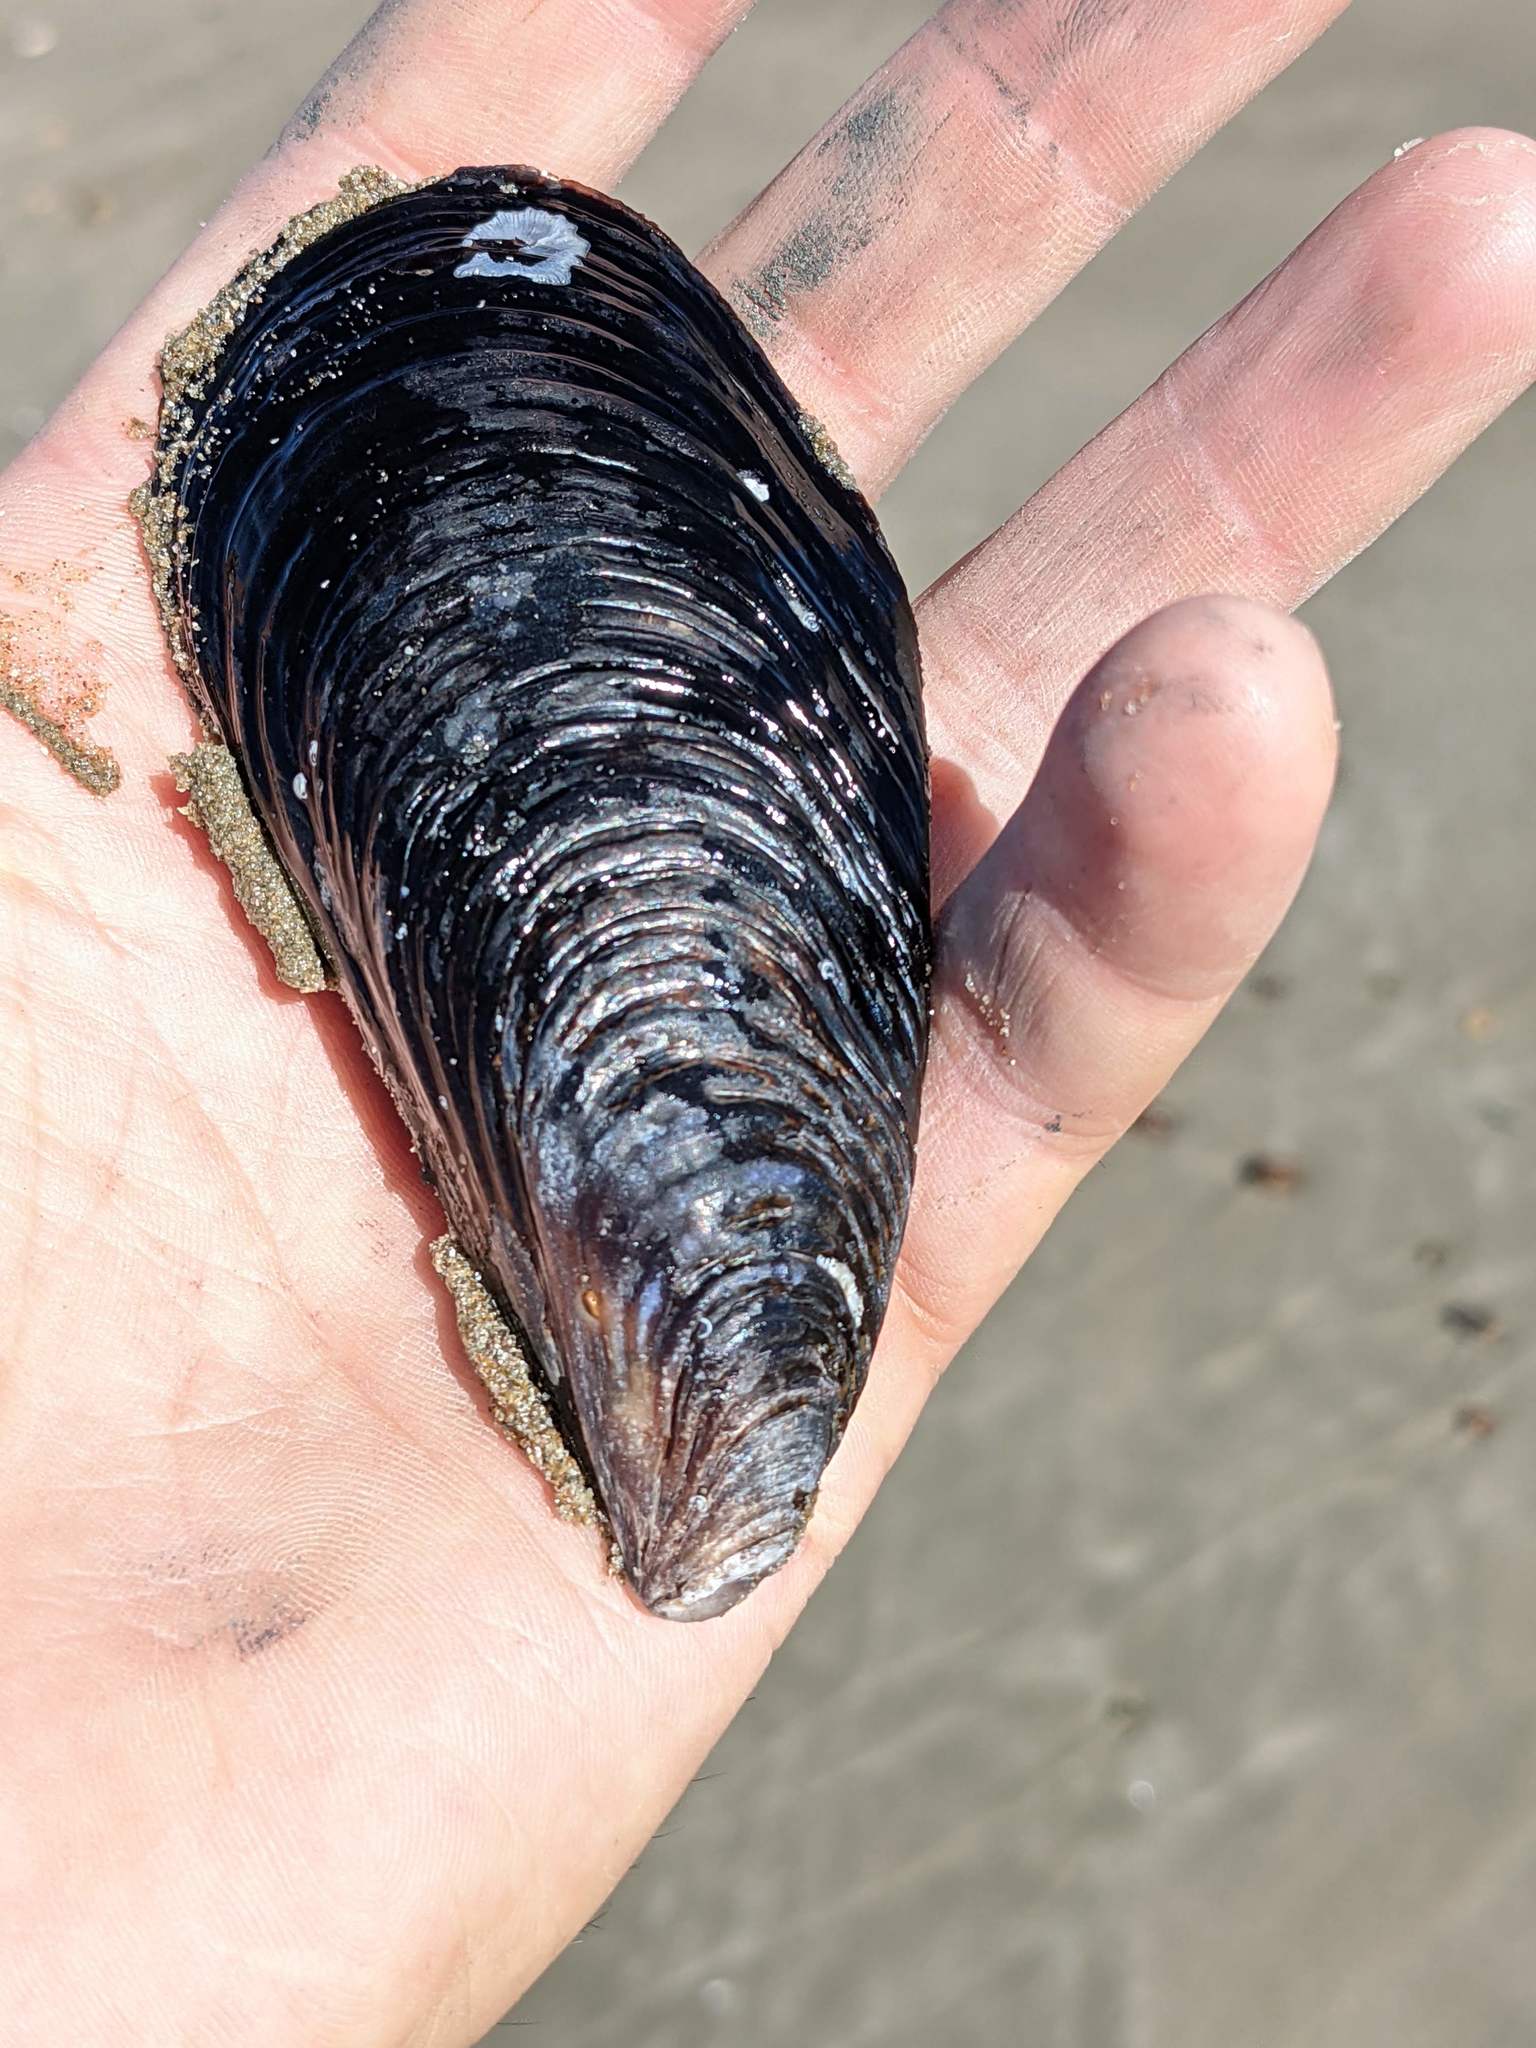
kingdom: Animalia
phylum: Mollusca
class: Bivalvia
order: Mytilida
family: Mytilidae
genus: Mytilus
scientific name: Mytilus californianus
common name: California mussel
